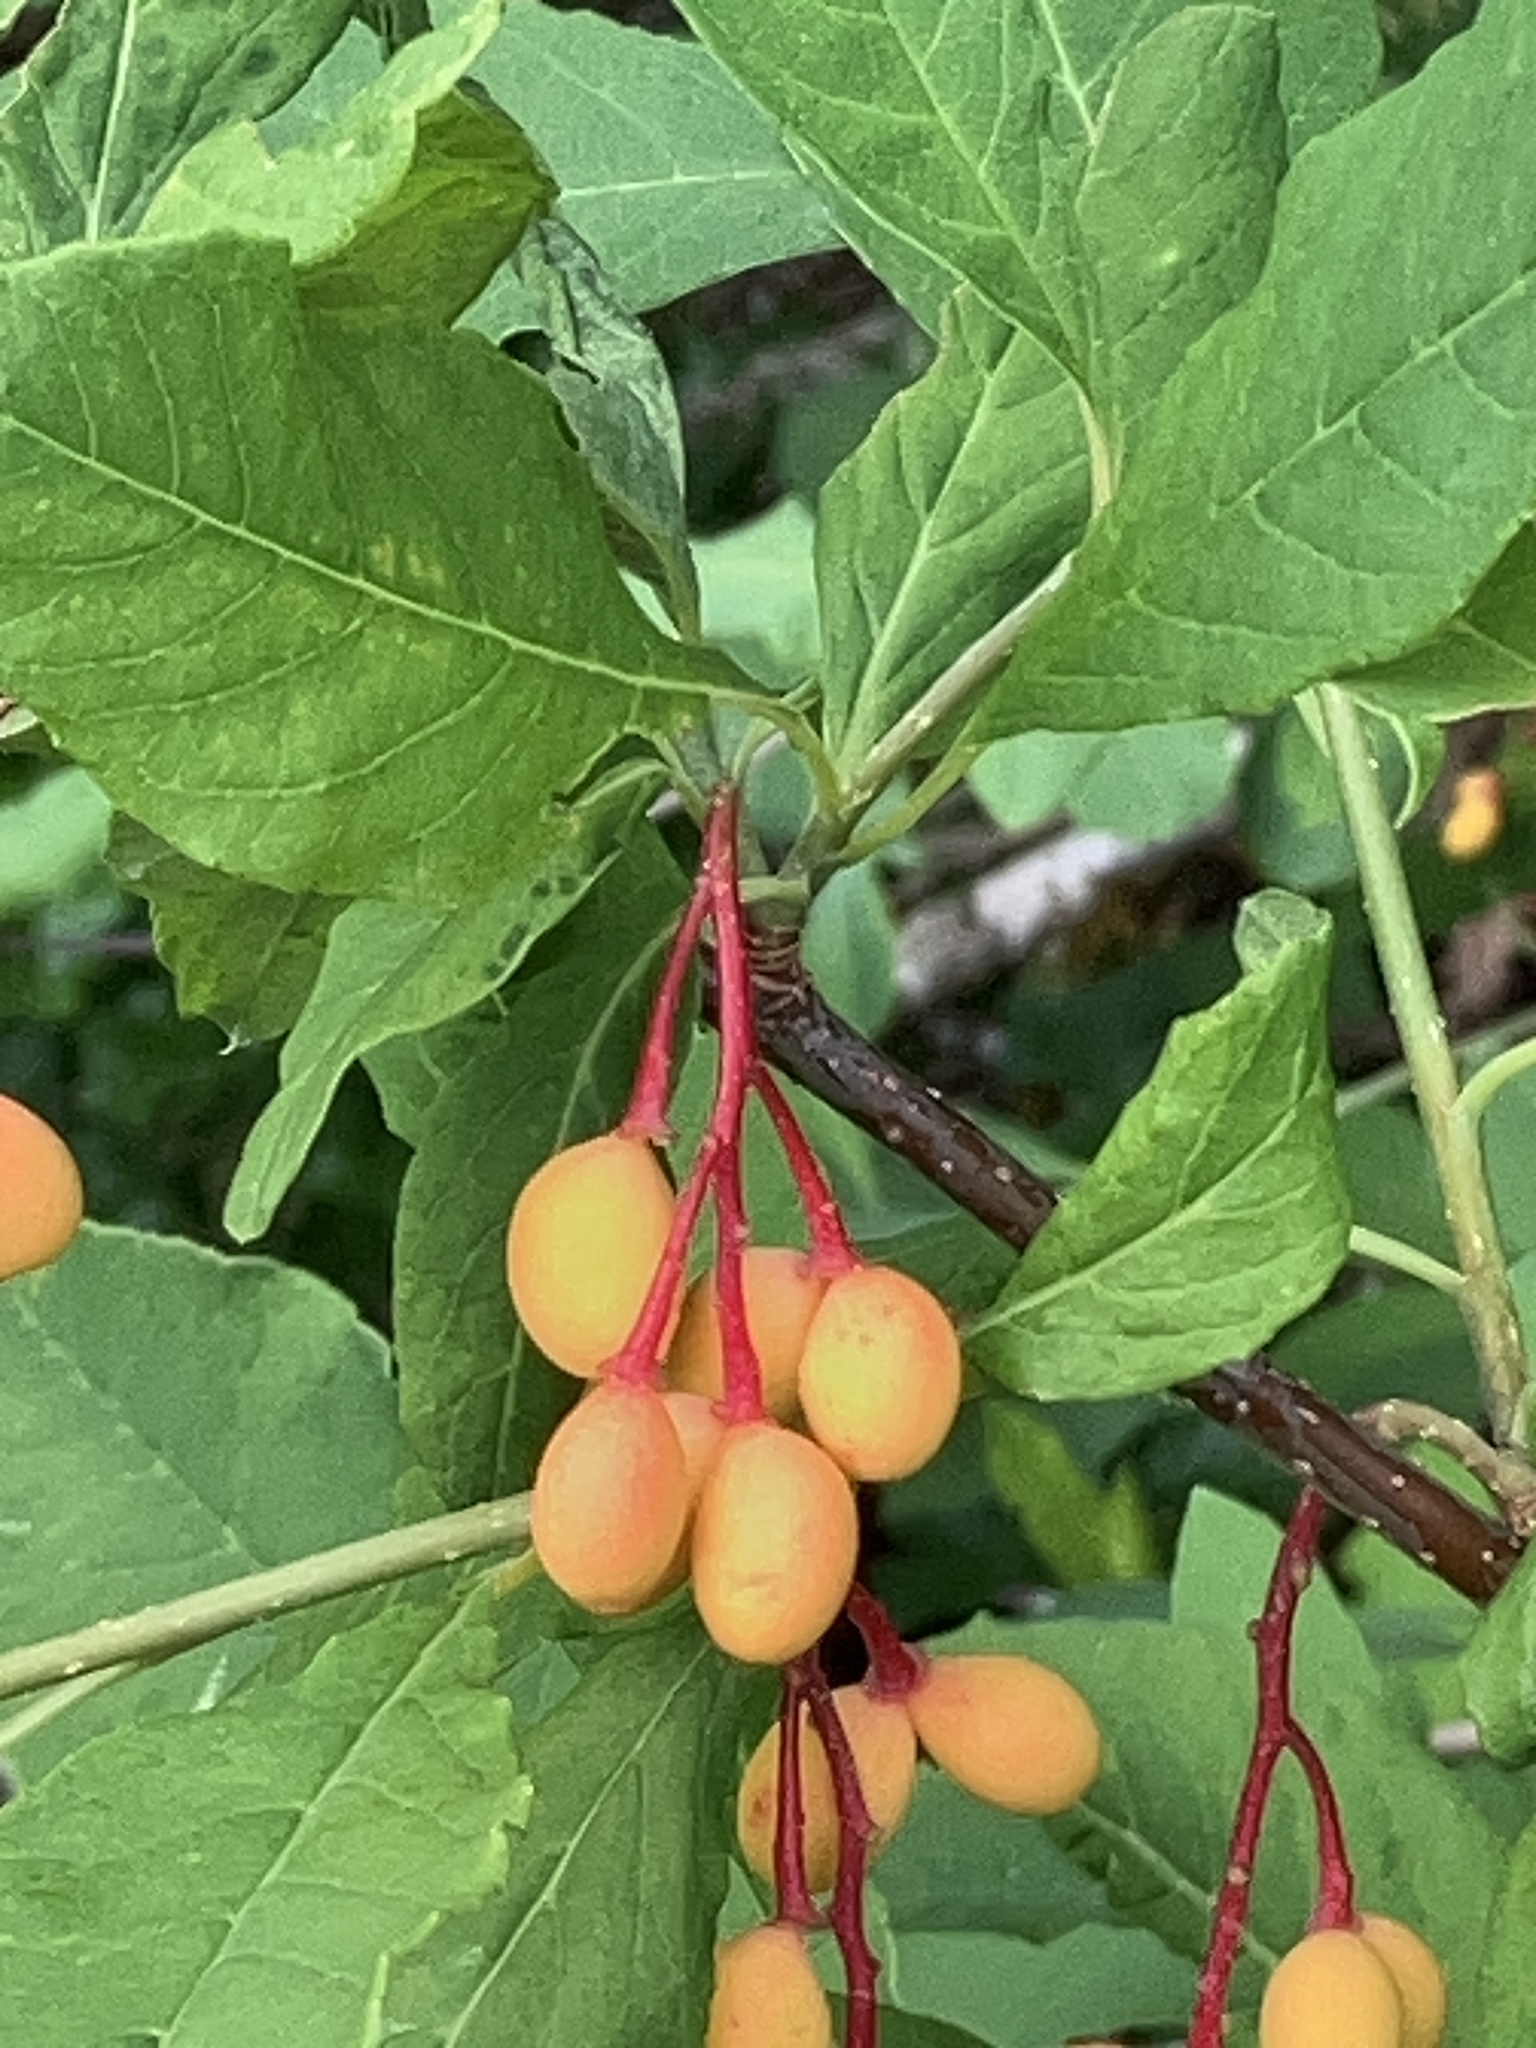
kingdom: Plantae
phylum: Tracheophyta
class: Magnoliopsida
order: Rosales
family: Rosaceae
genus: Oemleria
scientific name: Oemleria cerasiformis
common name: Osoberry
